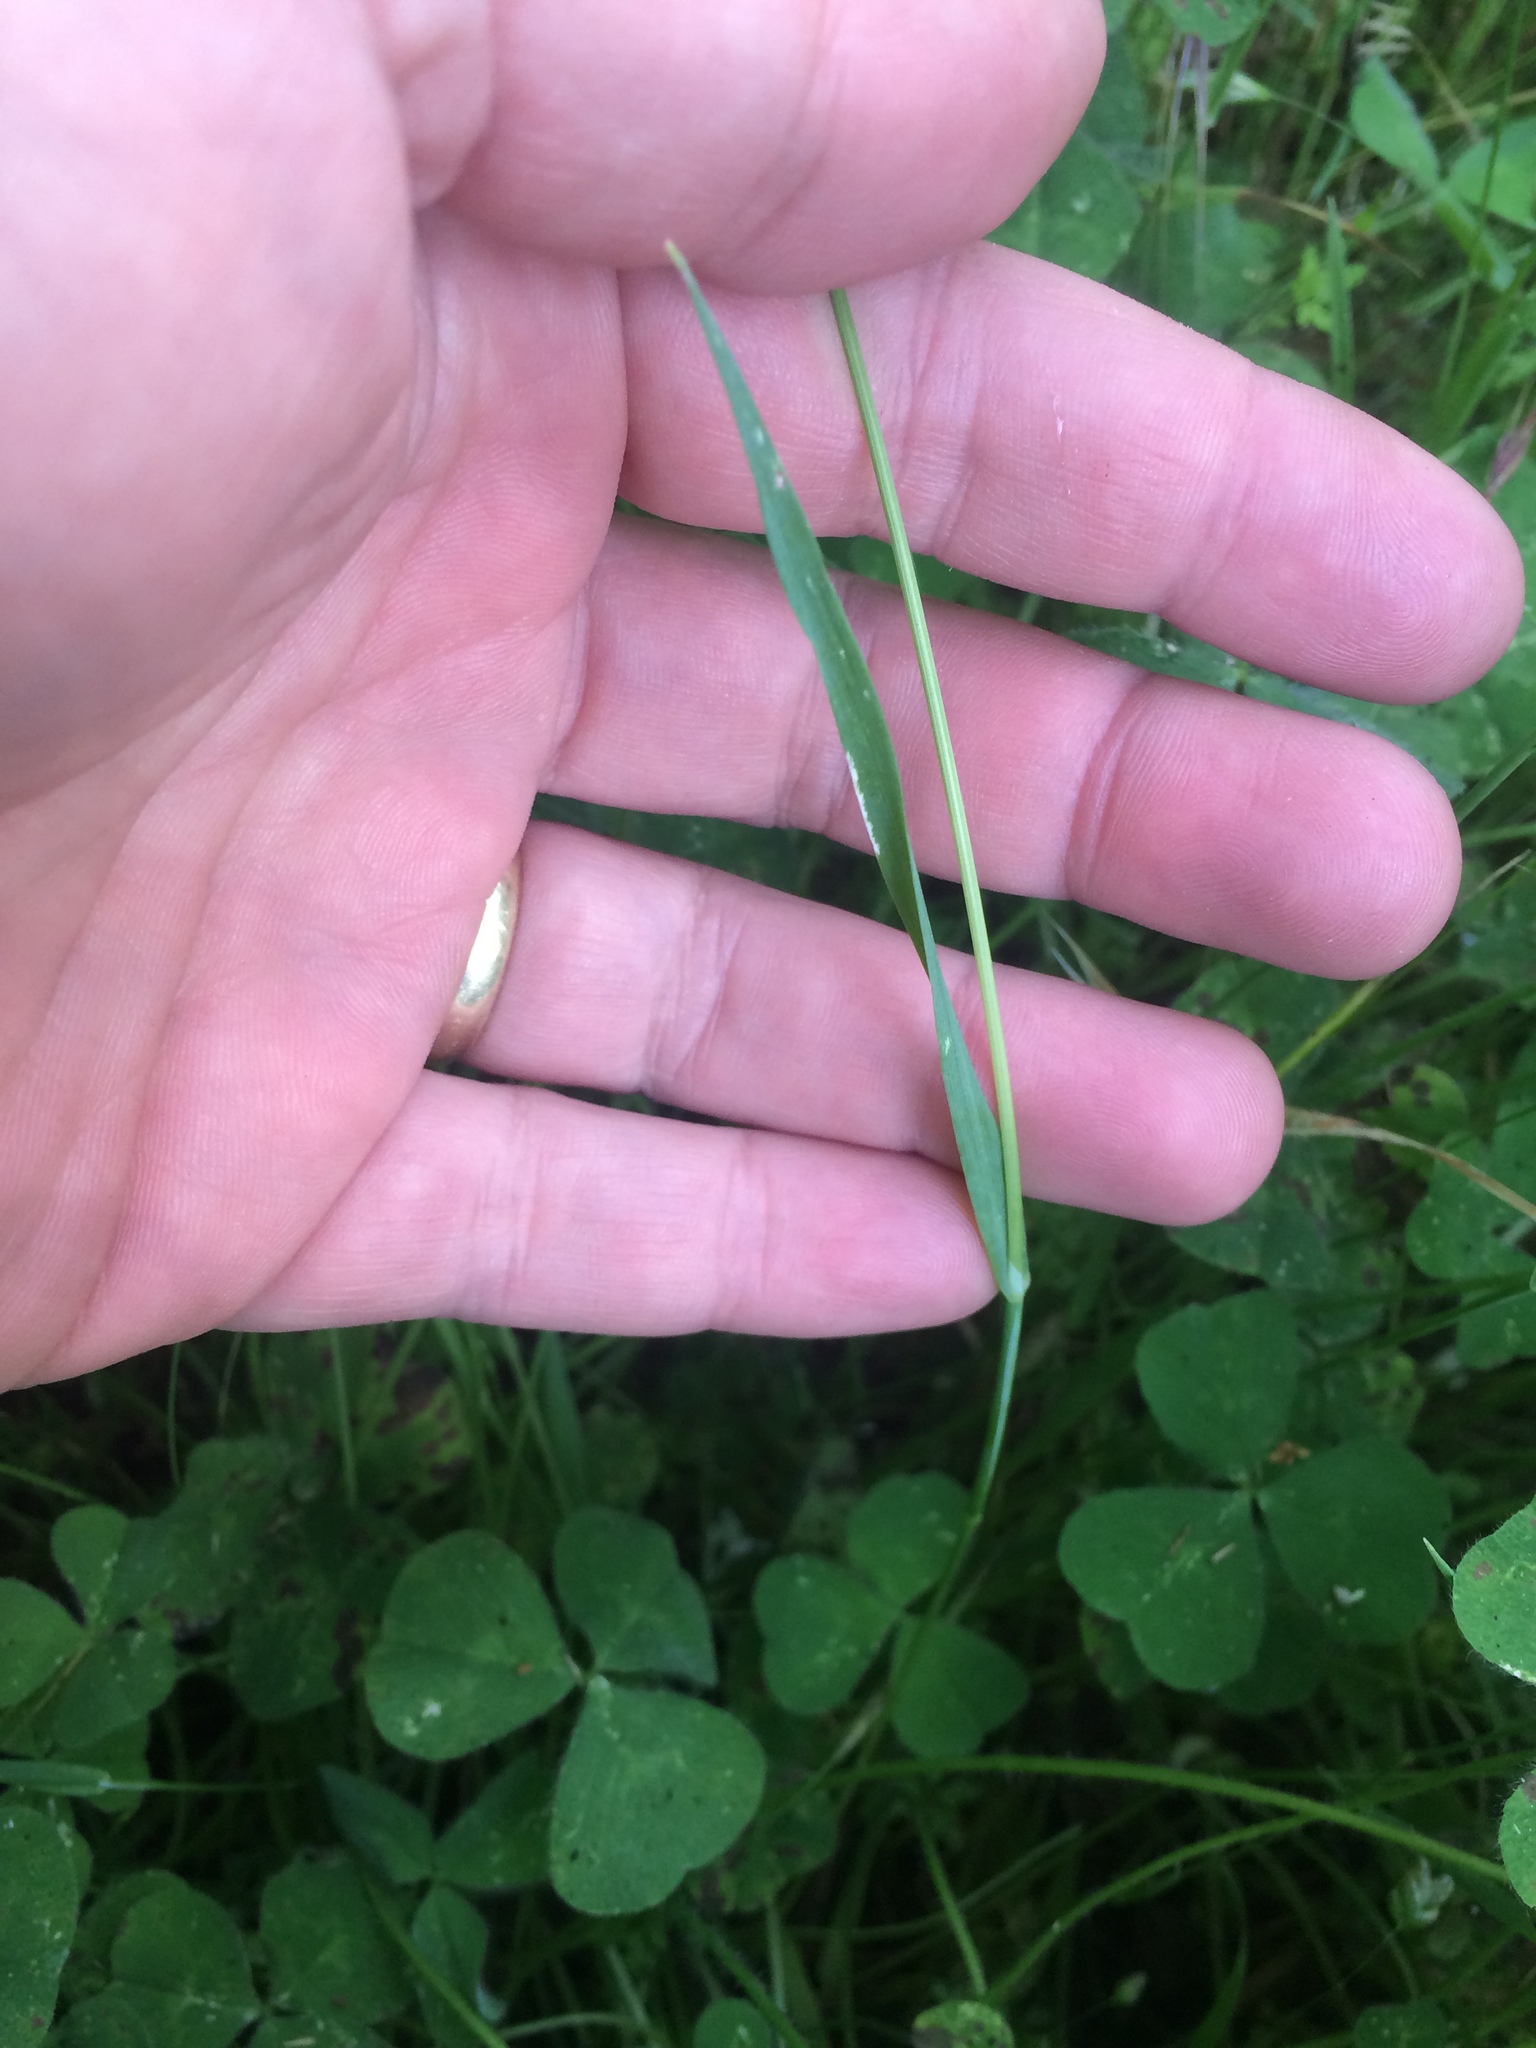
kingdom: Plantae
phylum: Tracheophyta
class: Liliopsida
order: Poales
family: Poaceae
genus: Briza
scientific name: Briza maxima
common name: Big quakinggrass
